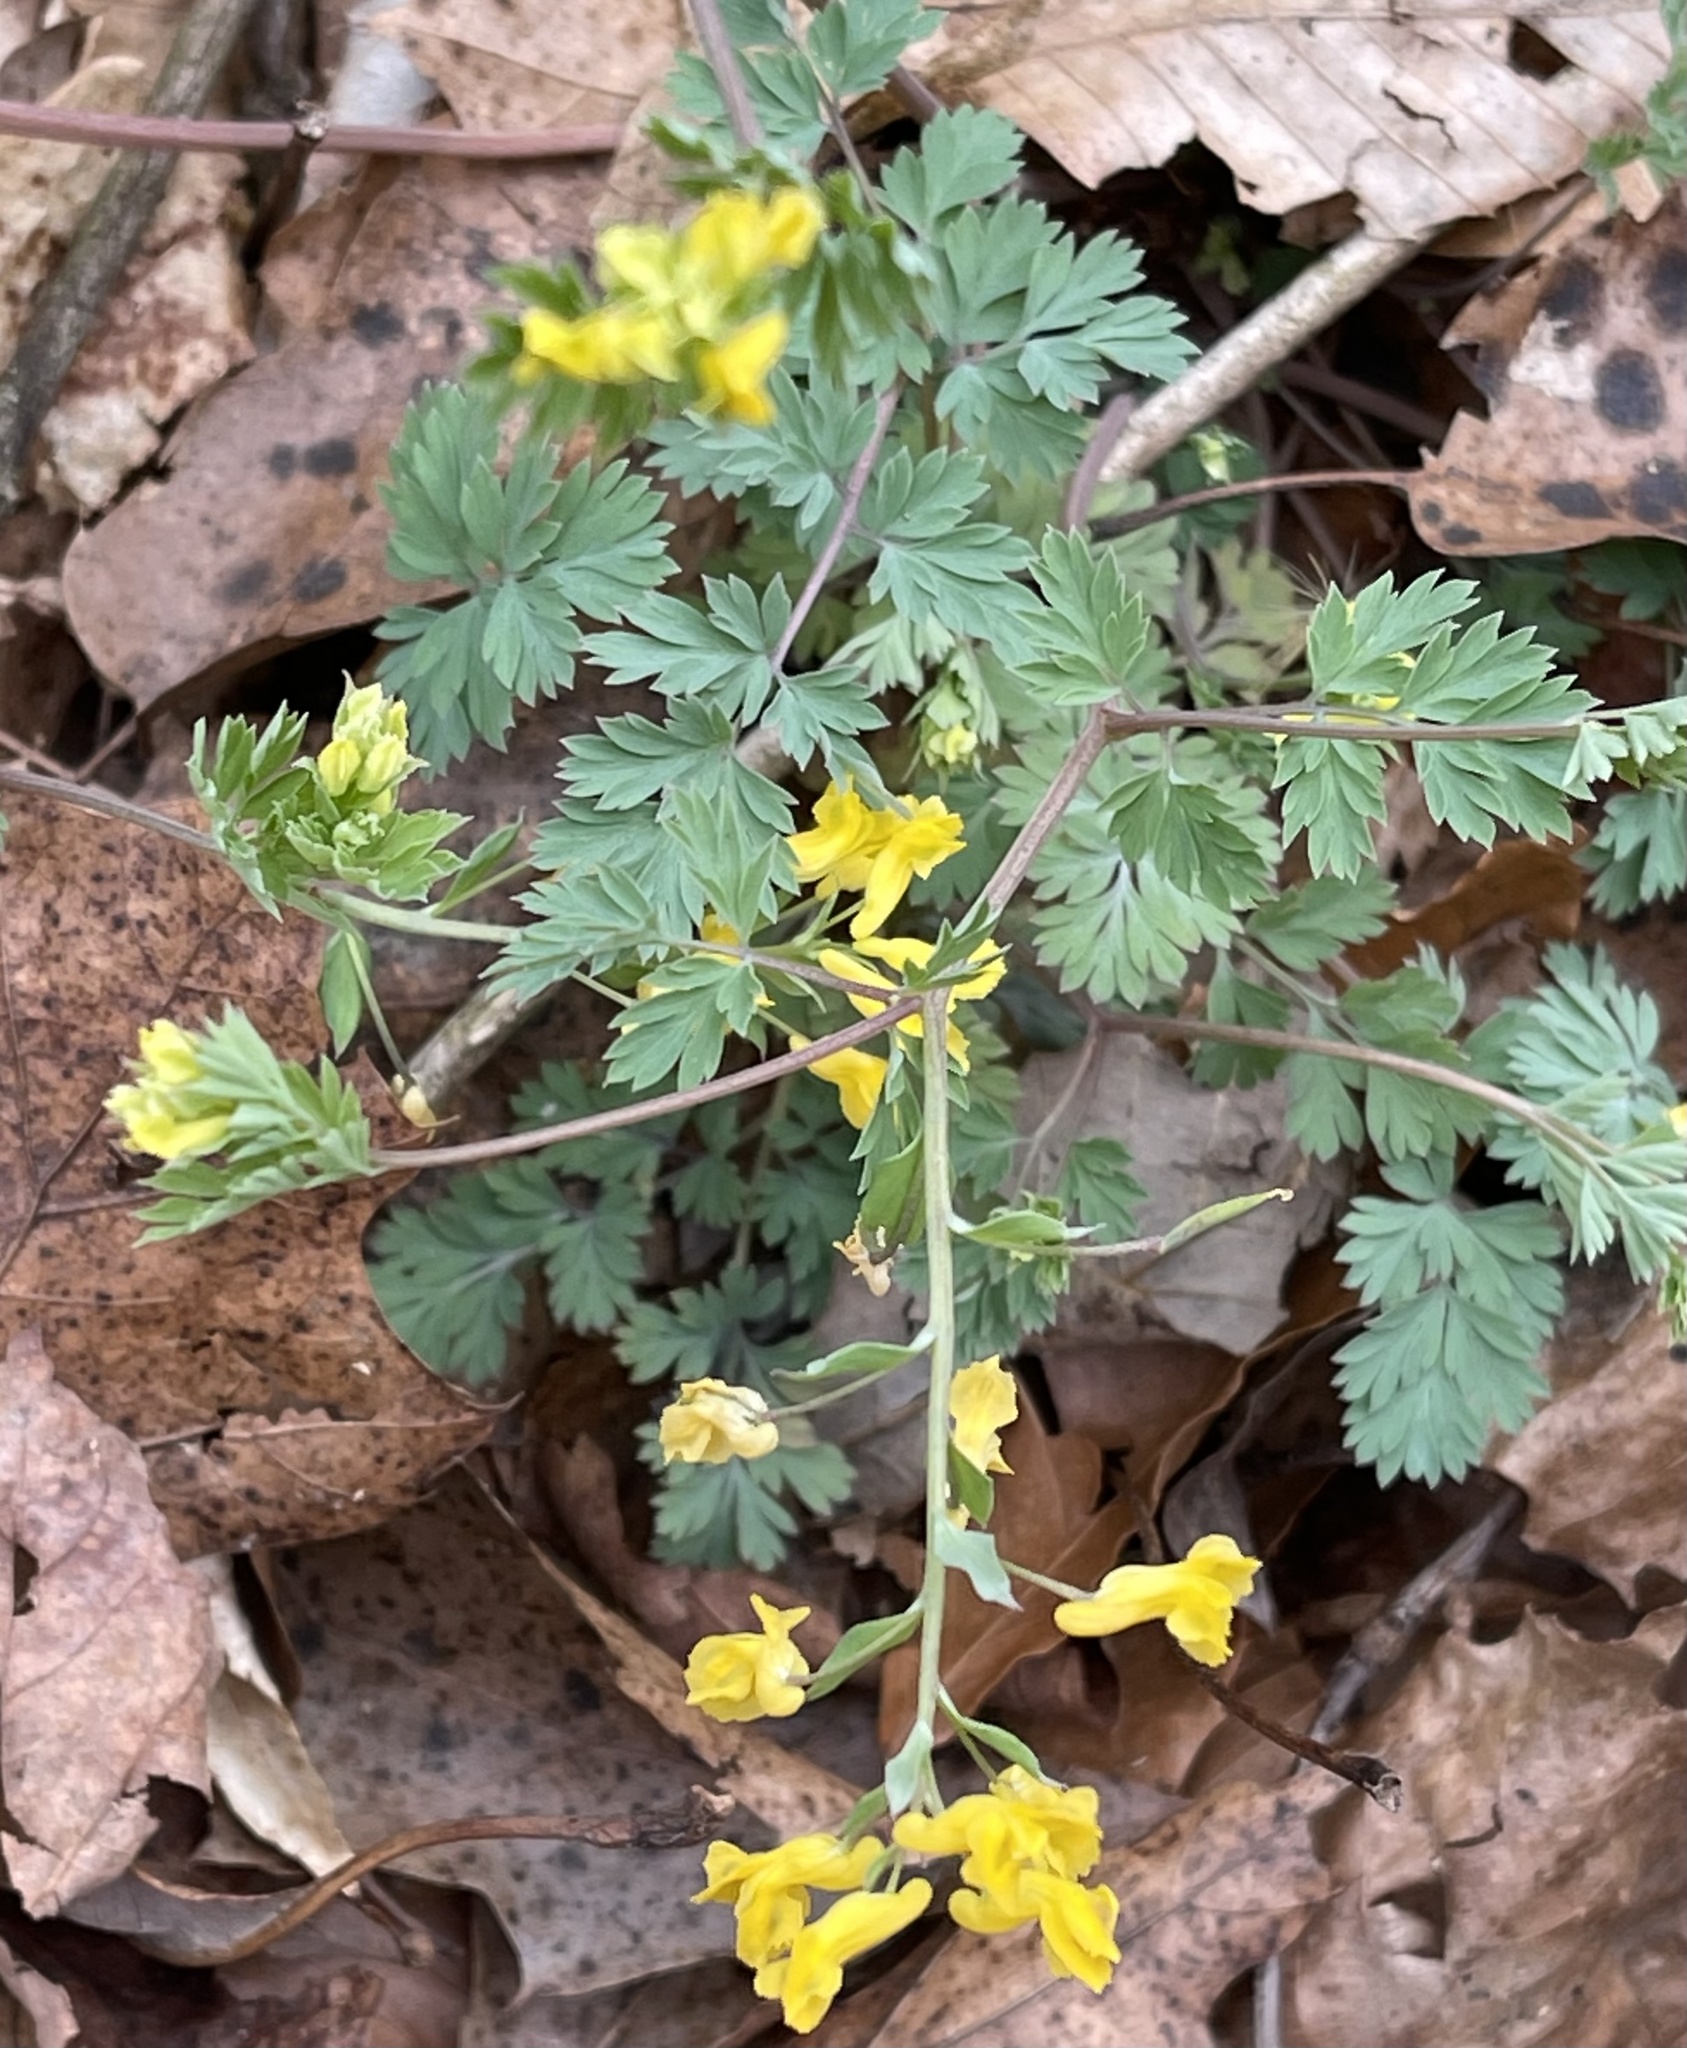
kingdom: Plantae
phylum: Tracheophyta
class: Magnoliopsida
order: Ranunculales
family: Papaveraceae
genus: Corydalis
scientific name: Corydalis flavula
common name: Yellow corydalis
